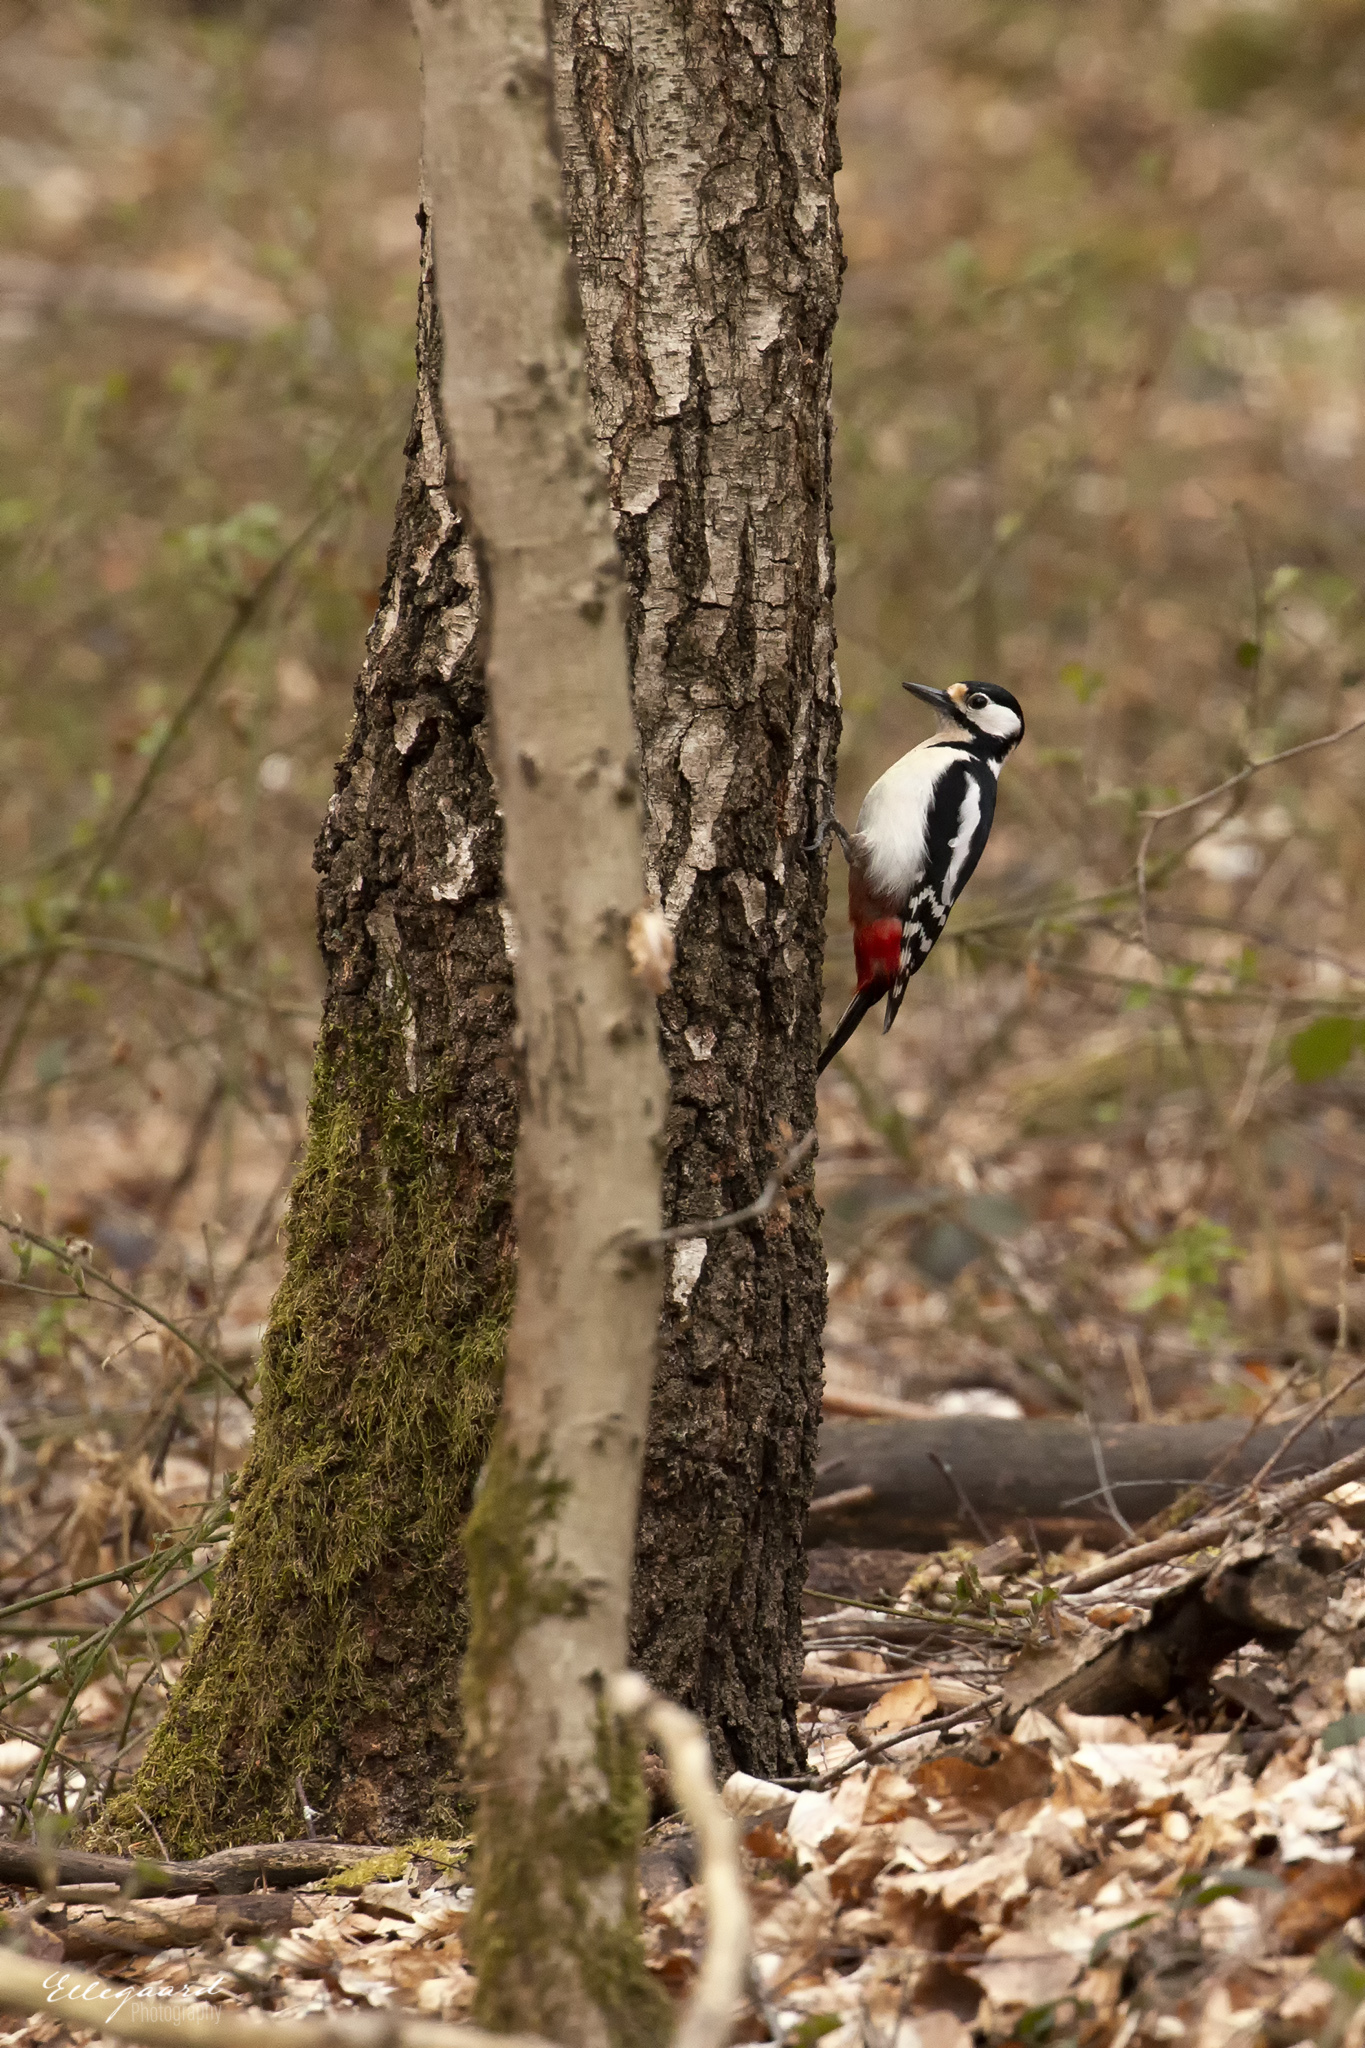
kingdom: Animalia
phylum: Chordata
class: Aves
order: Piciformes
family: Picidae
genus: Dendrocopos
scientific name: Dendrocopos major
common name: Great spotted woodpecker
